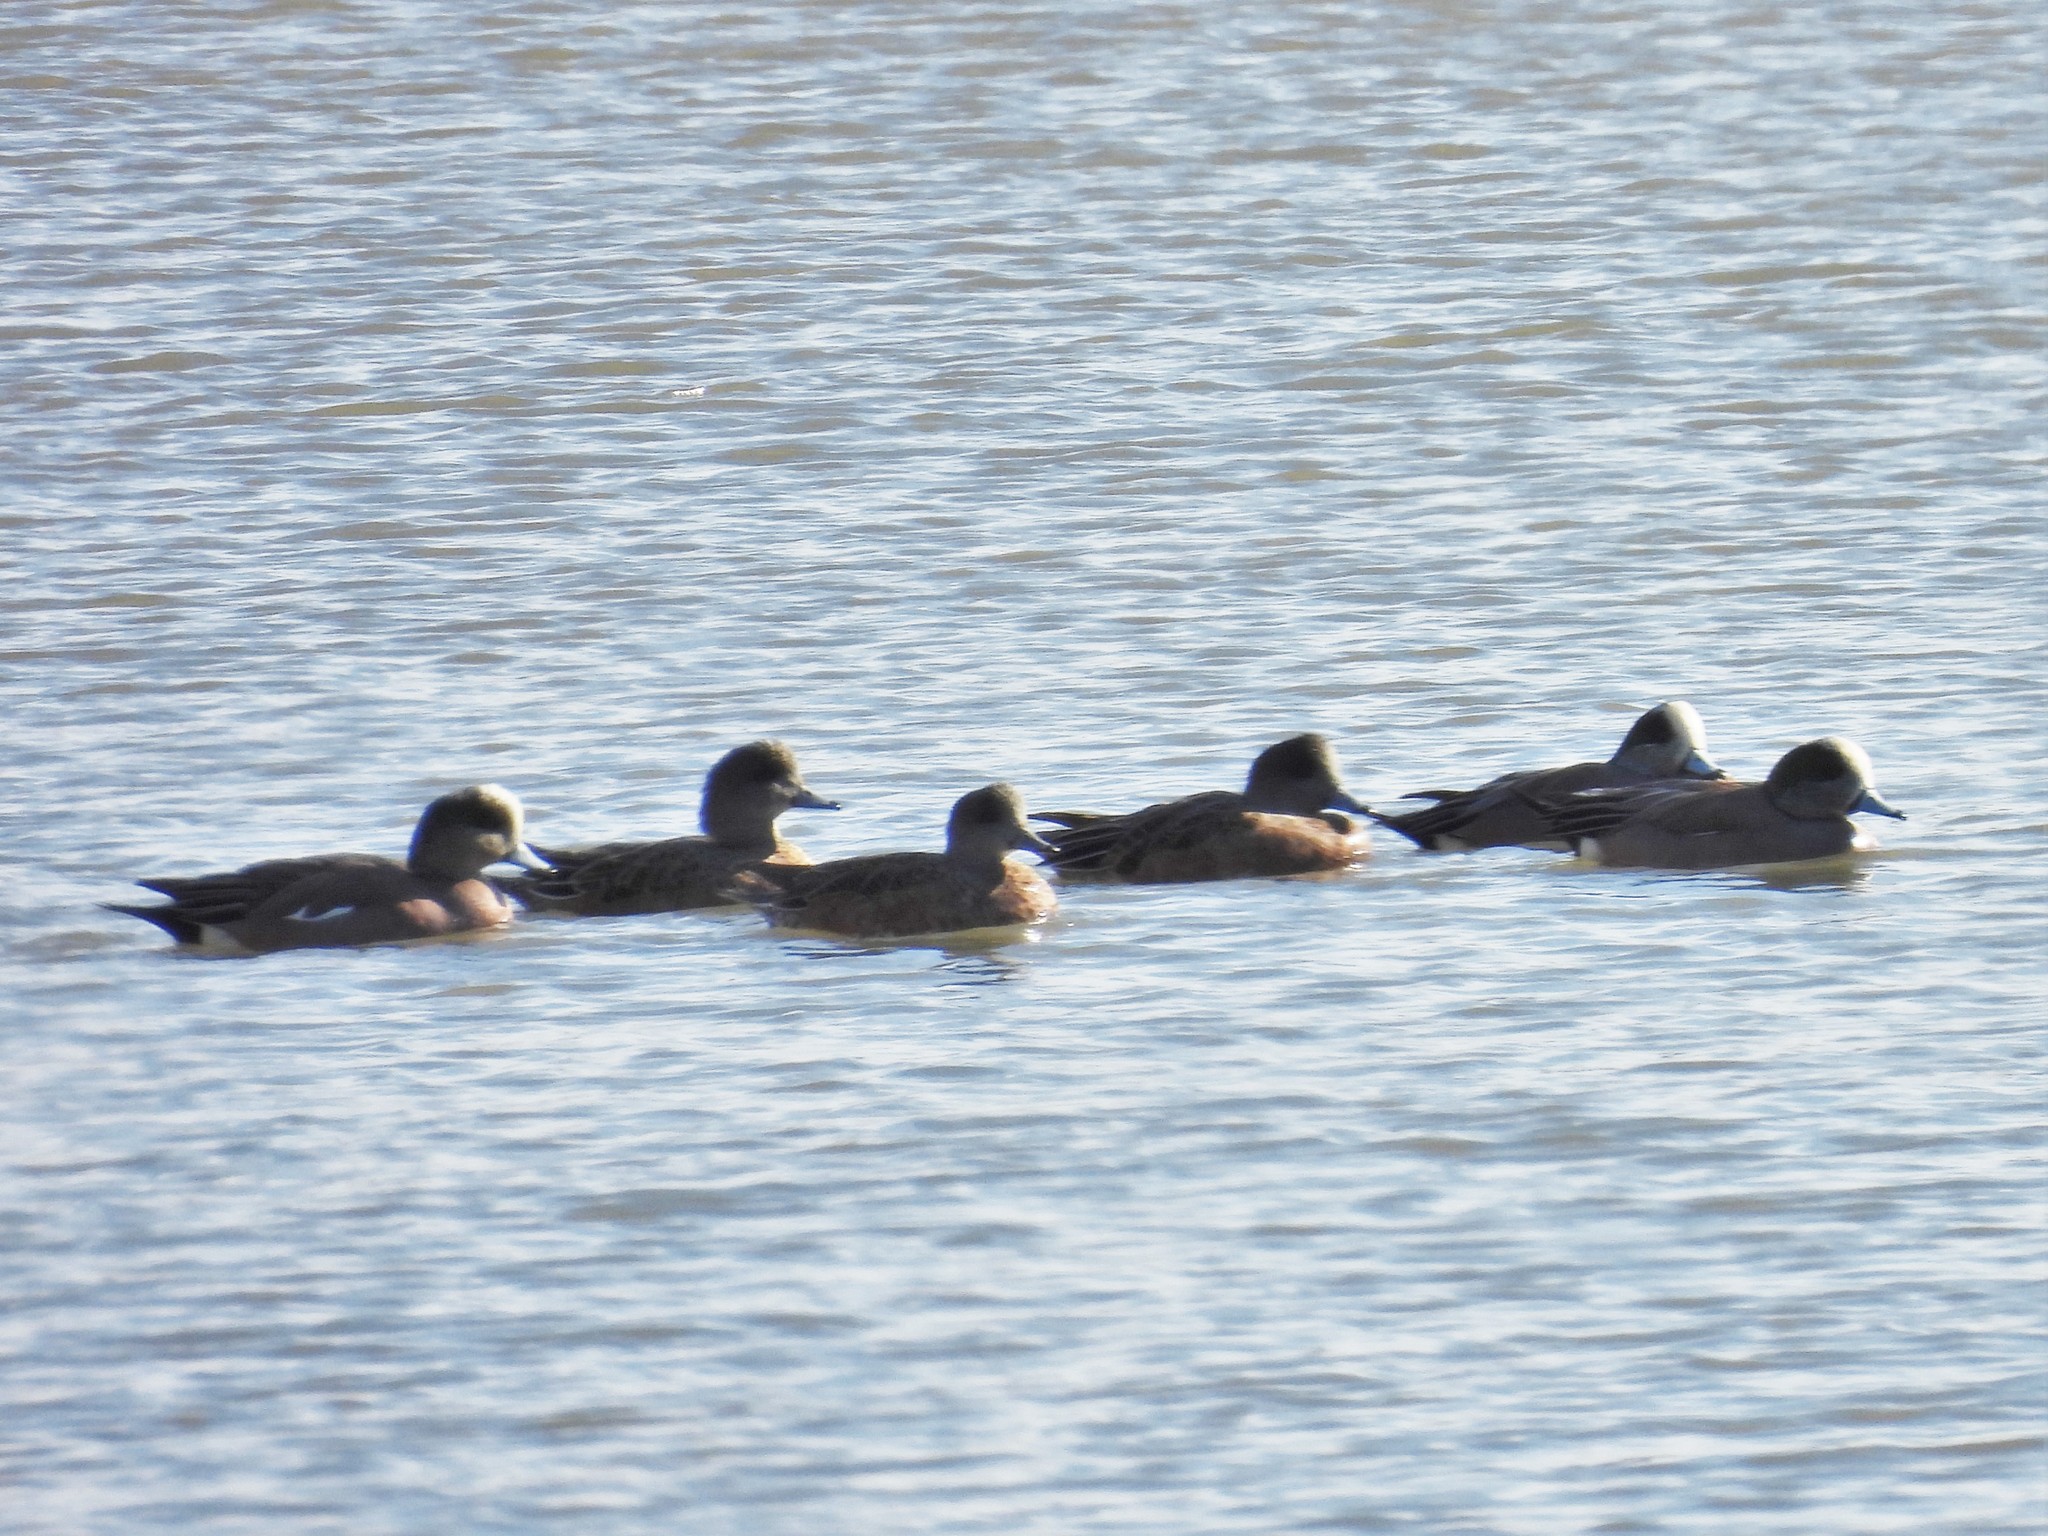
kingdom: Animalia
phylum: Chordata
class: Aves
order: Anseriformes
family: Anatidae
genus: Mareca
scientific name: Mareca americana
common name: American wigeon
